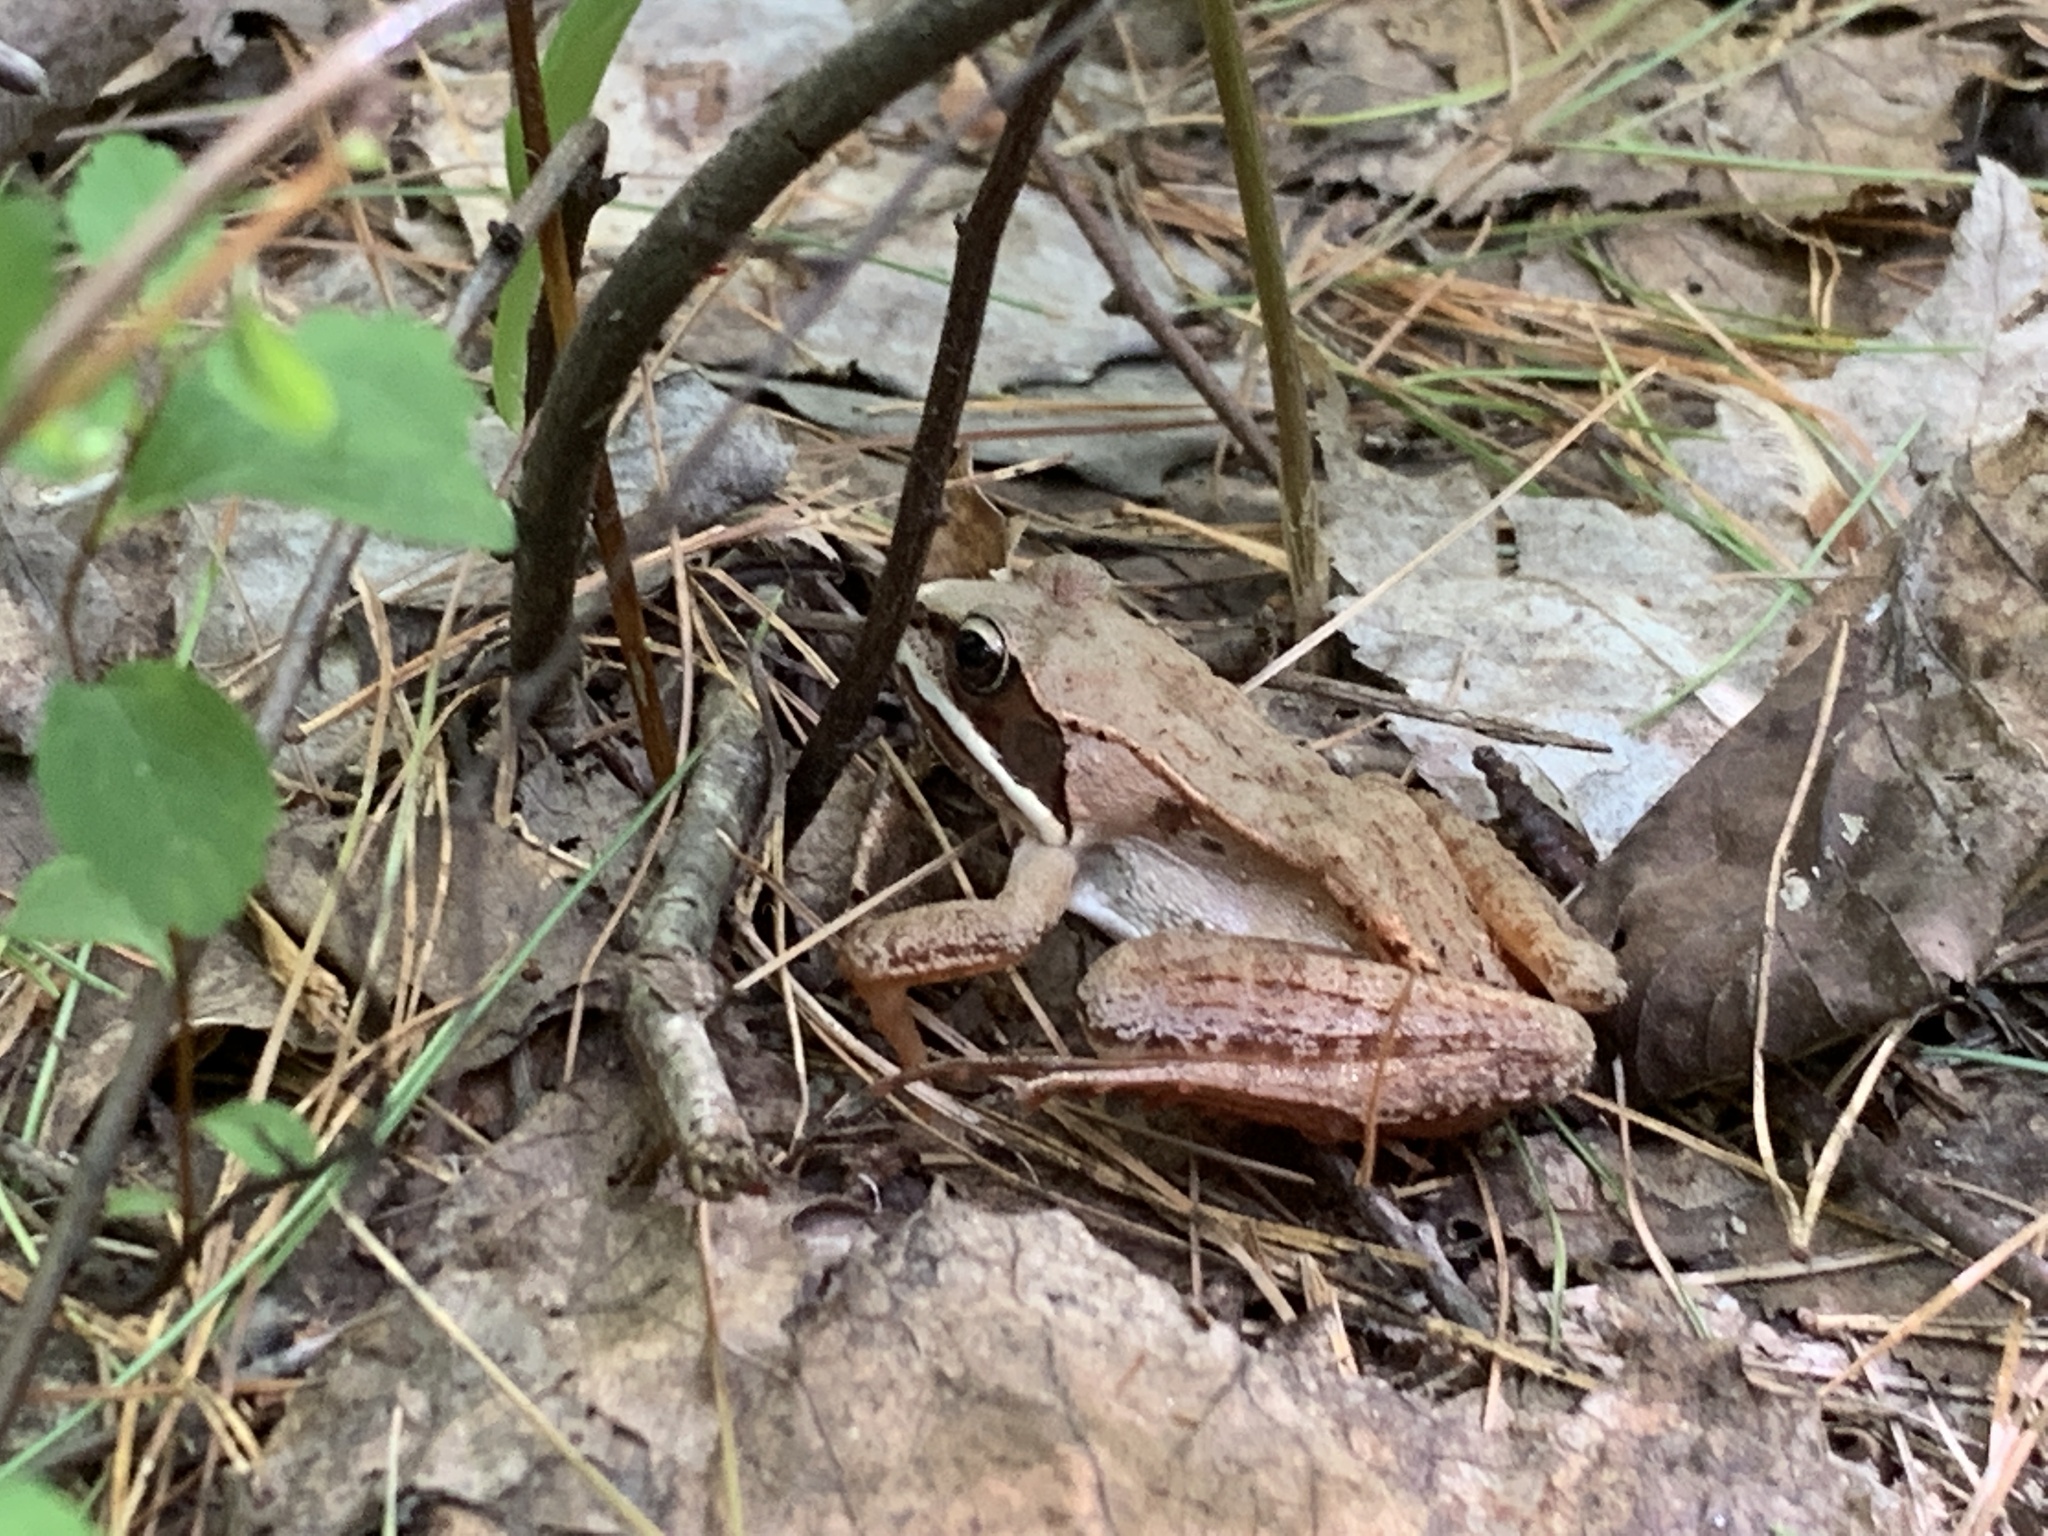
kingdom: Animalia
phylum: Chordata
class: Amphibia
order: Anura
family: Ranidae
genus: Lithobates
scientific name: Lithobates sylvaticus
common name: Wood frog
